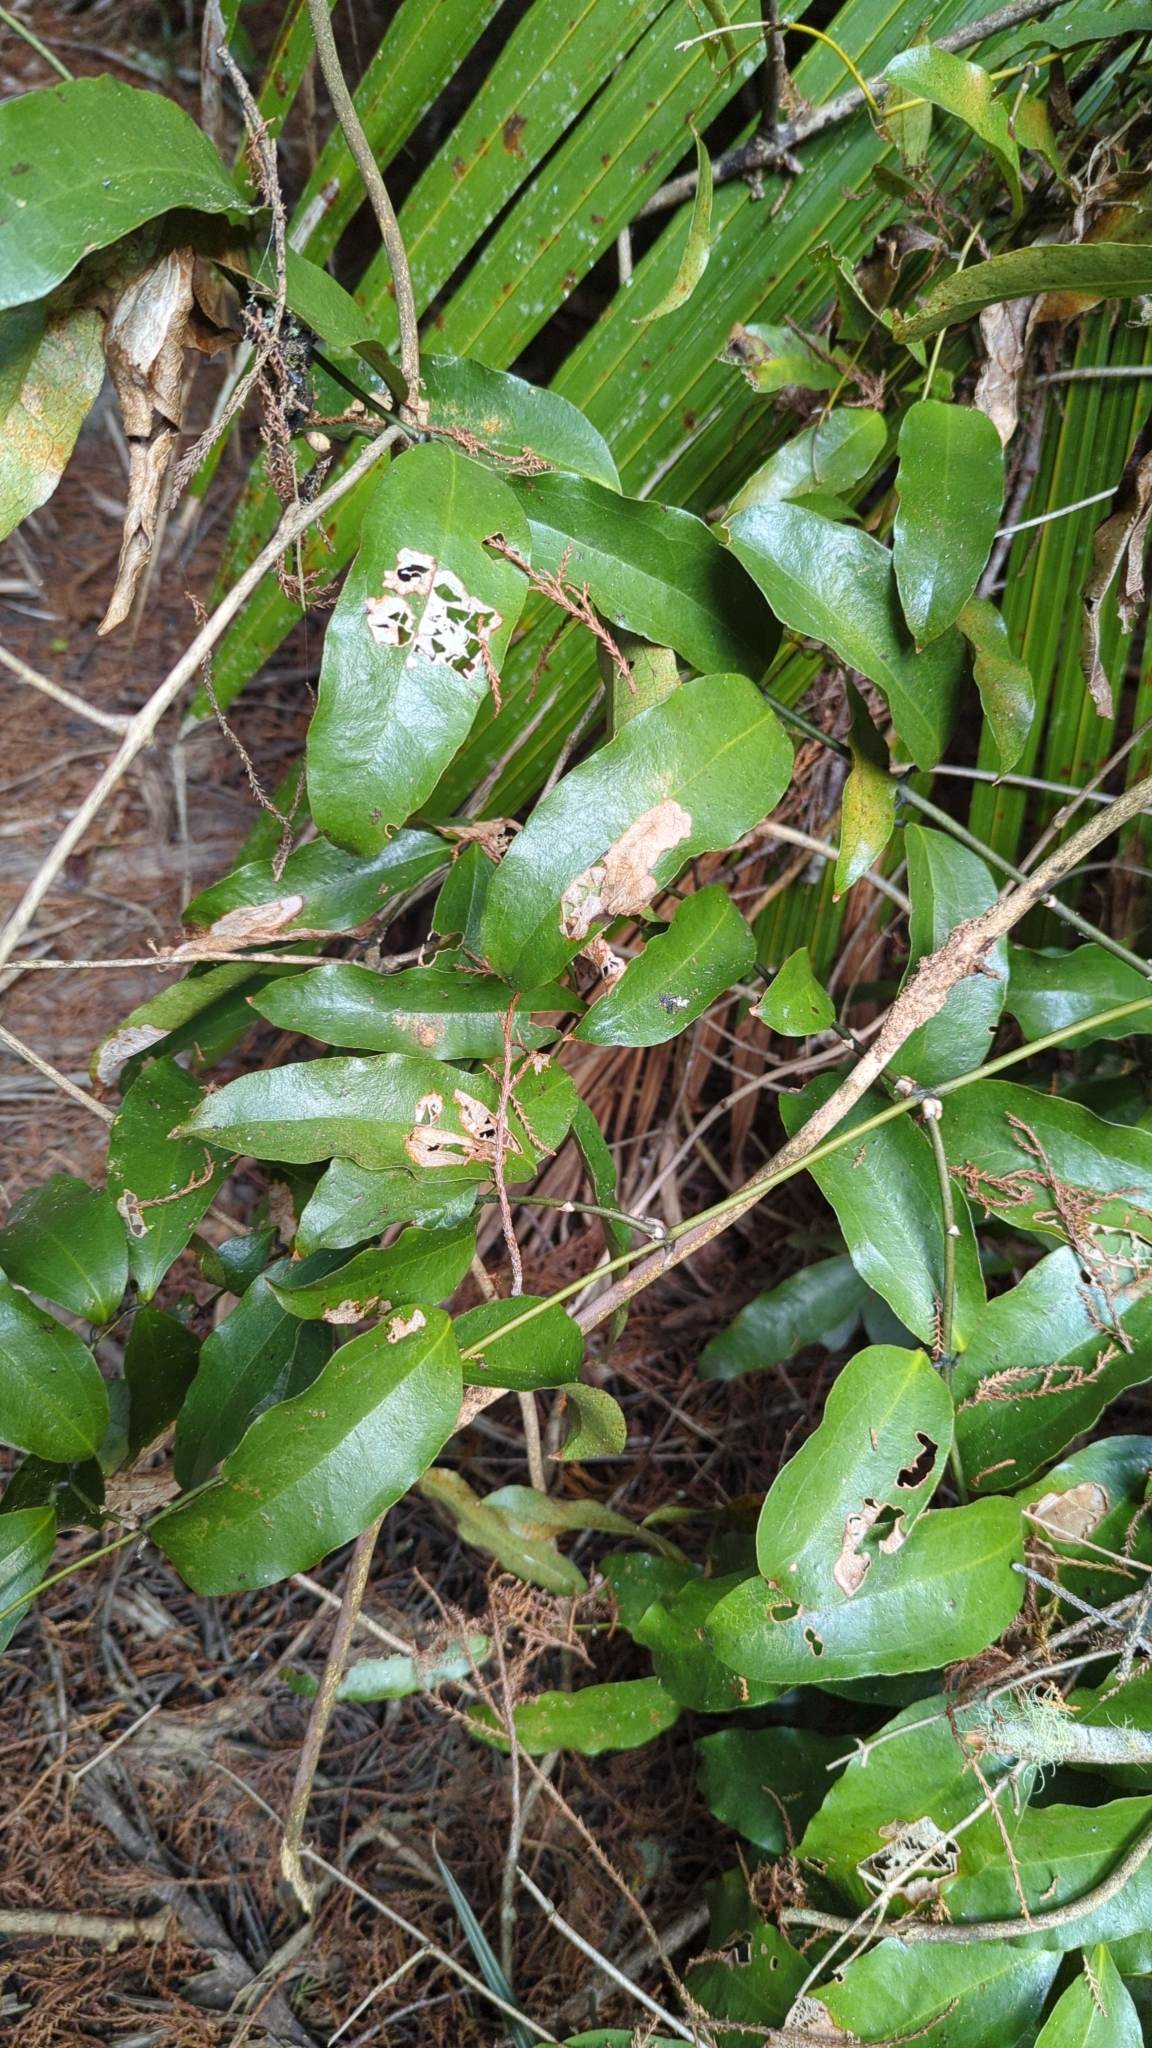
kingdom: Plantae
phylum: Tracheophyta
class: Liliopsida
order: Liliales
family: Ripogonaceae
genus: Ripogonum
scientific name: Ripogonum scandens
